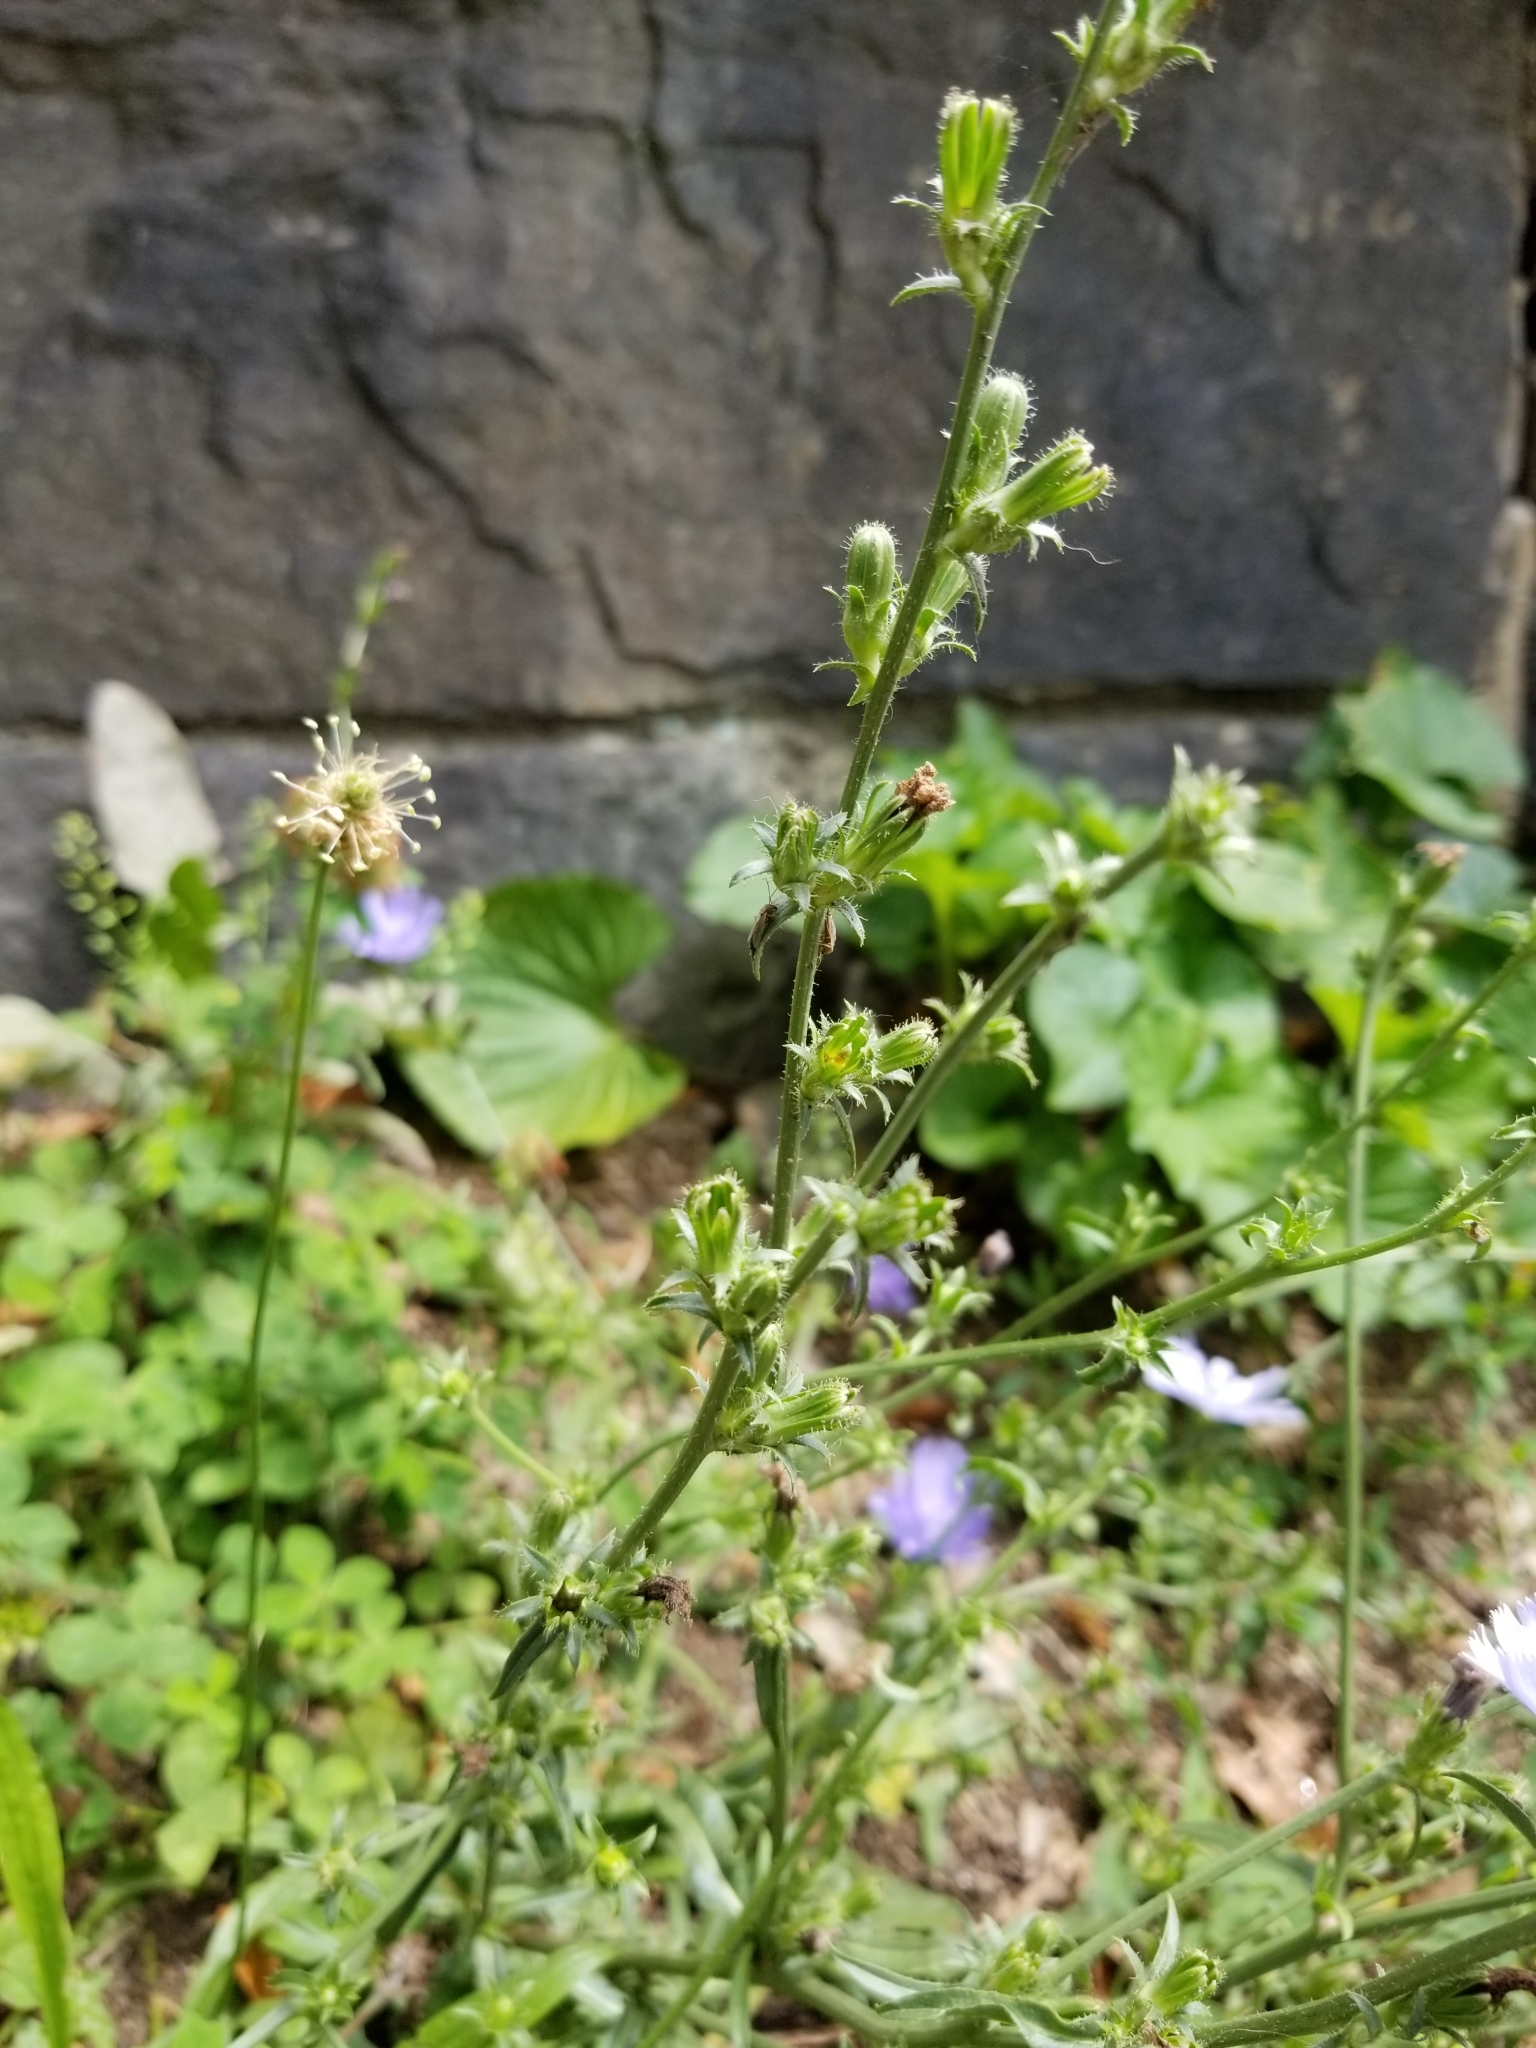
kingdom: Plantae
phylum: Tracheophyta
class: Magnoliopsida
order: Asterales
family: Asteraceae
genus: Cichorium
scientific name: Cichorium intybus
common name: Chicory
